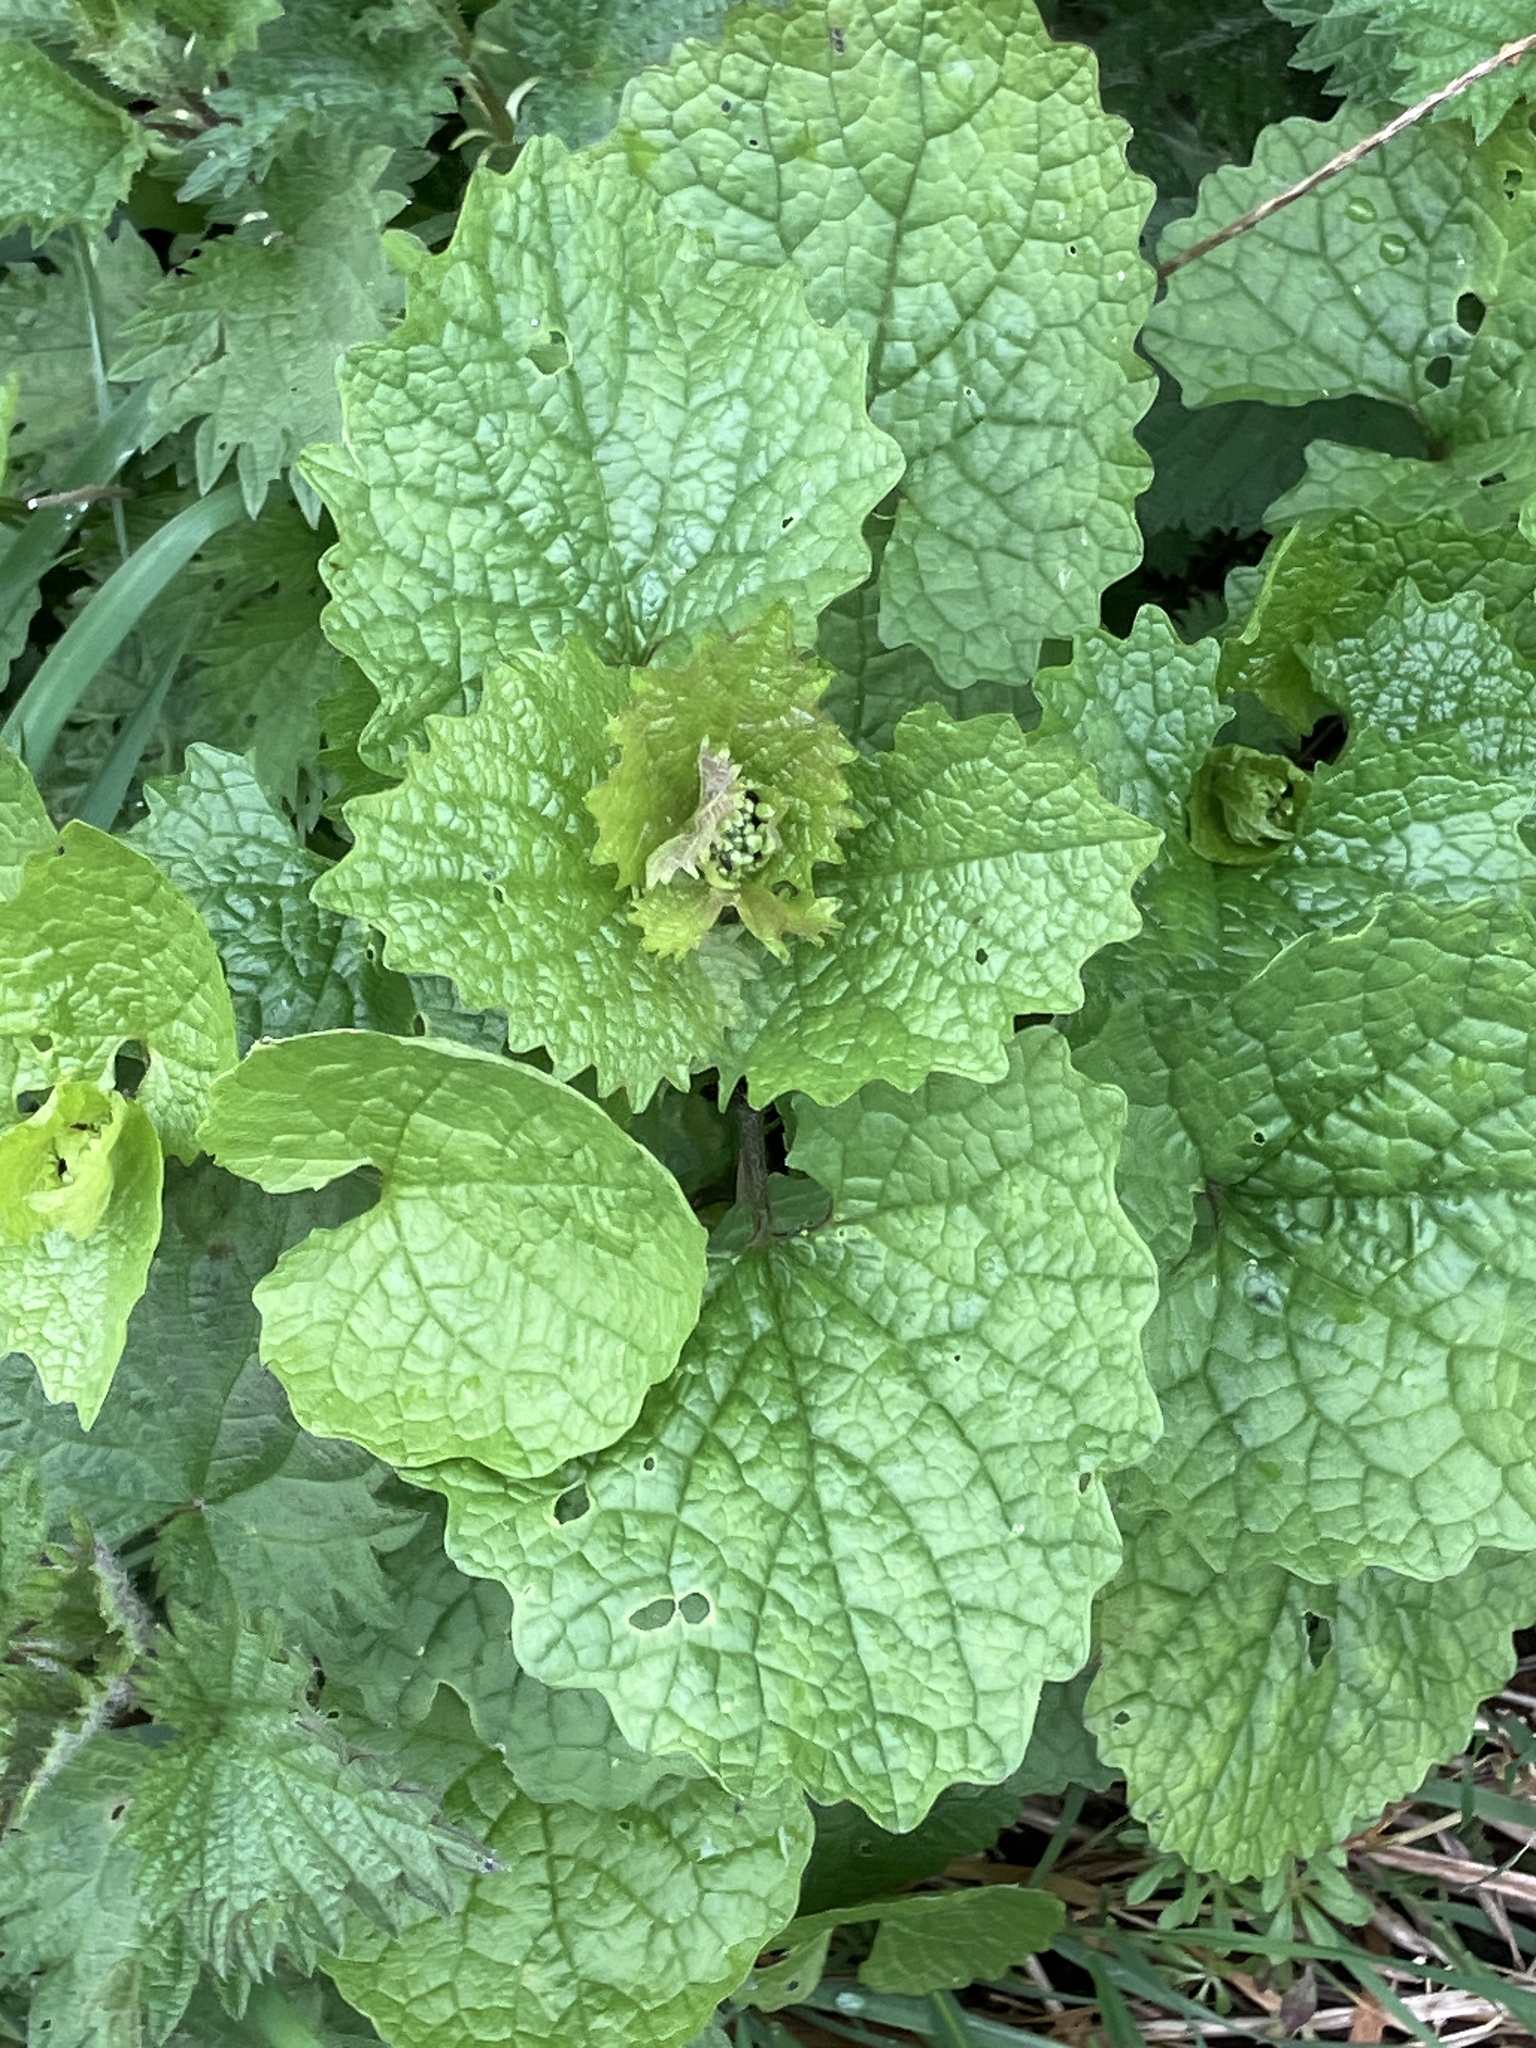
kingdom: Plantae
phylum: Tracheophyta
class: Magnoliopsida
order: Brassicales
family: Brassicaceae
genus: Alliaria
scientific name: Alliaria petiolata
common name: Garlic mustard
